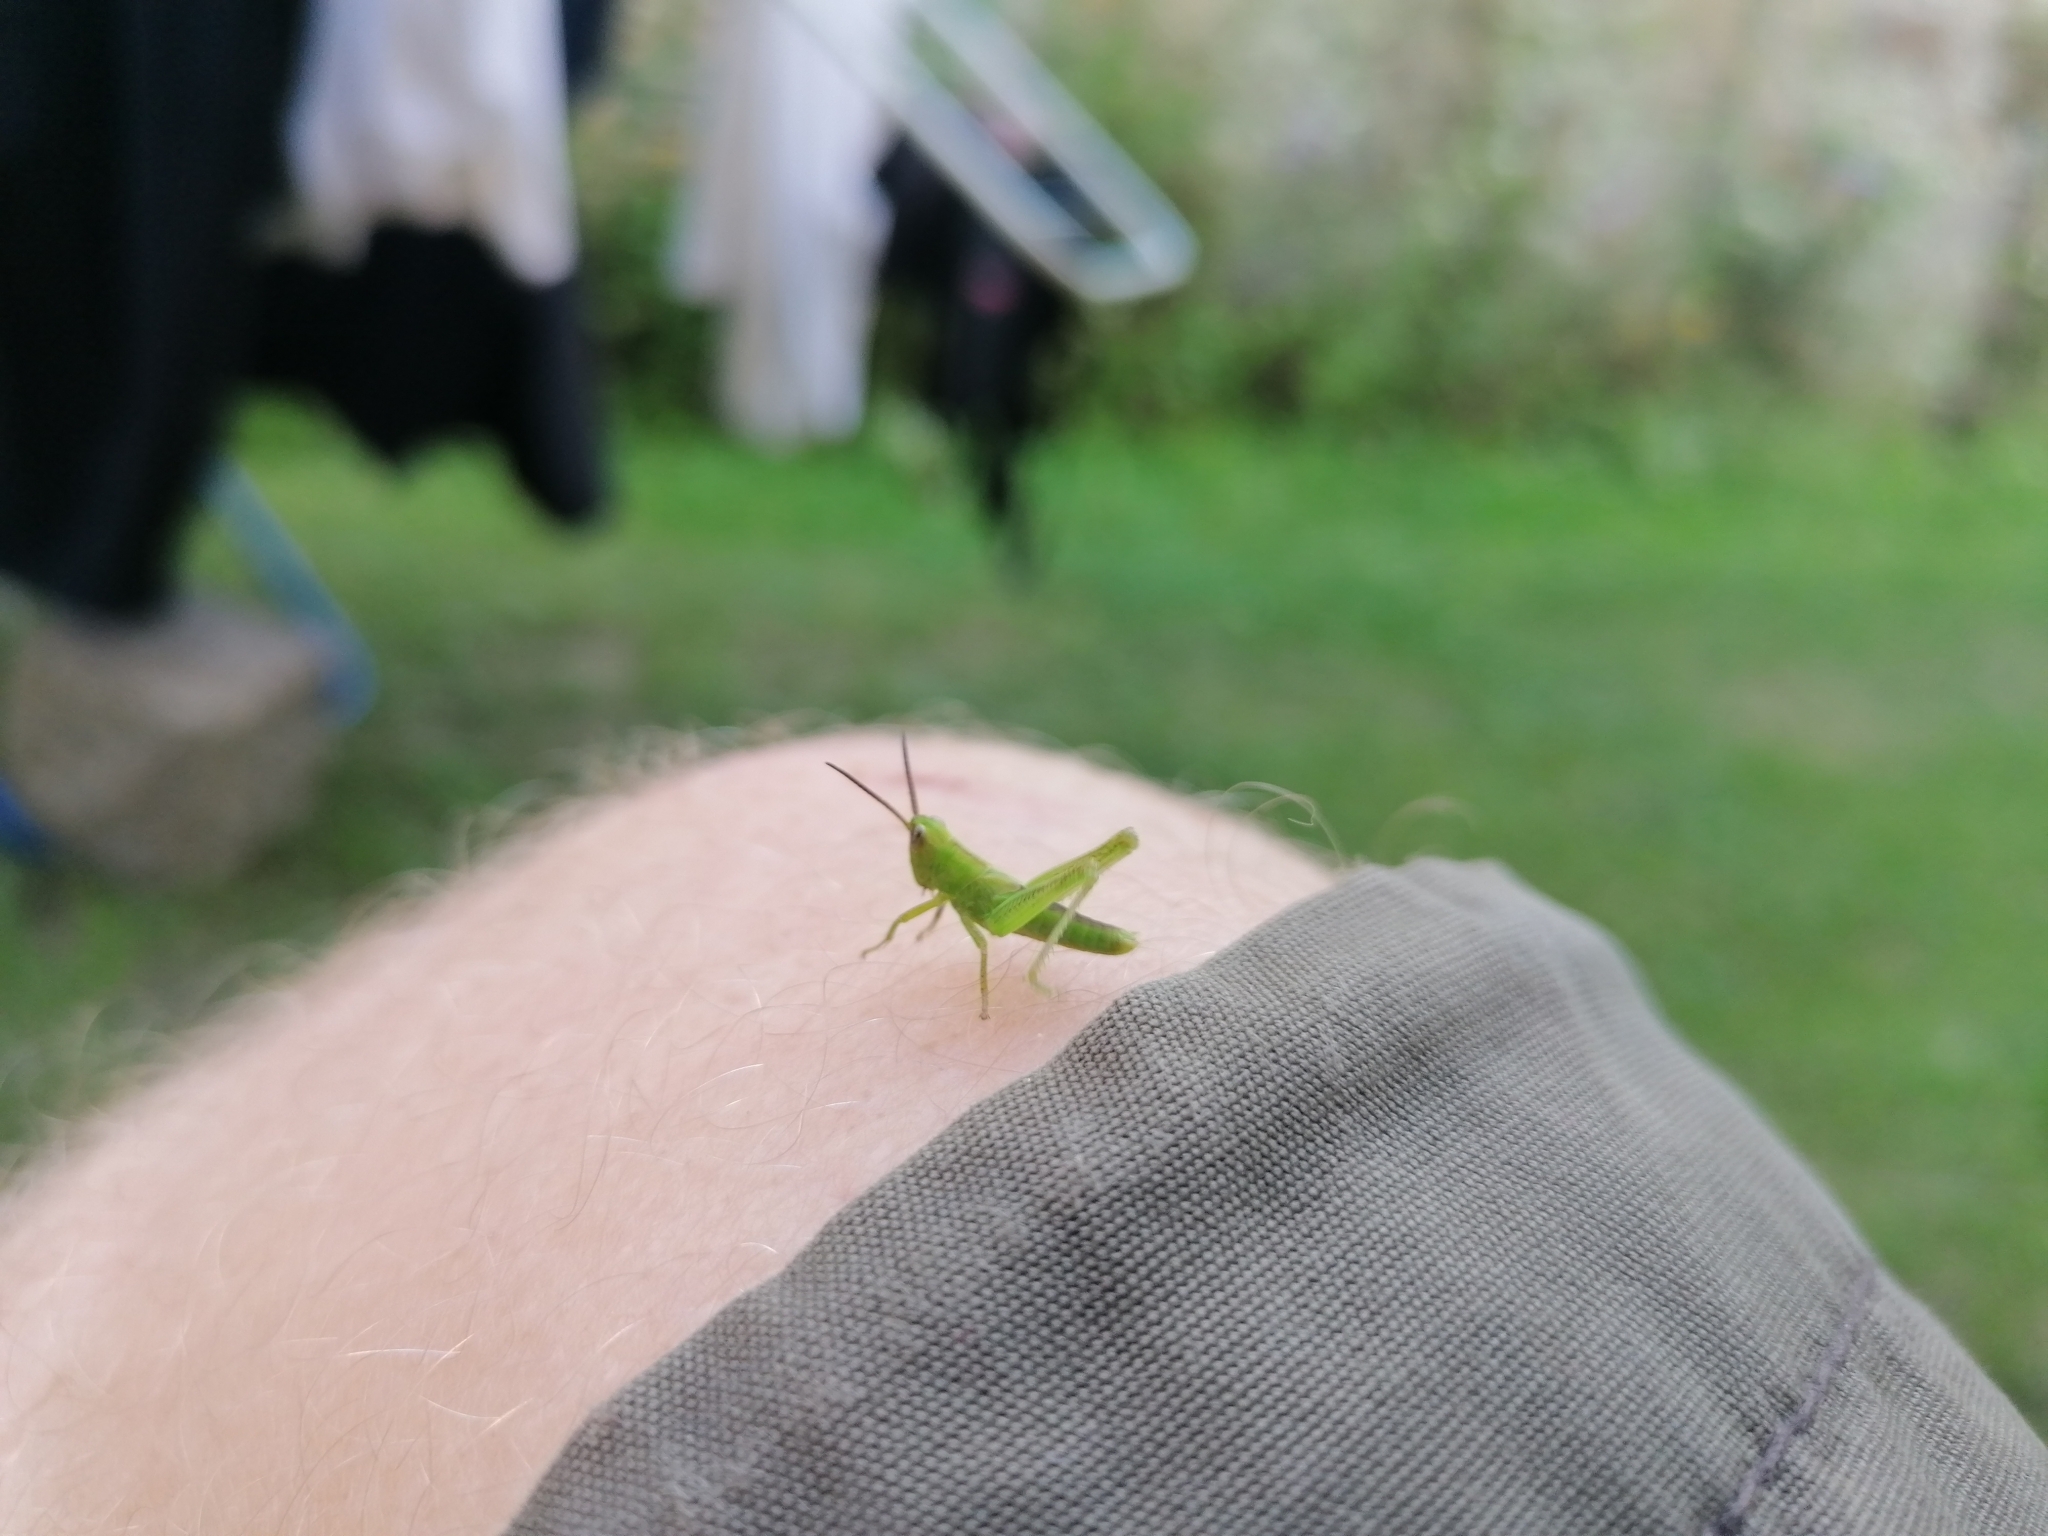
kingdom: Animalia
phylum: Arthropoda
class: Insecta
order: Orthoptera
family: Acrididae
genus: Mecostethus
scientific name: Mecostethus parapleurus
